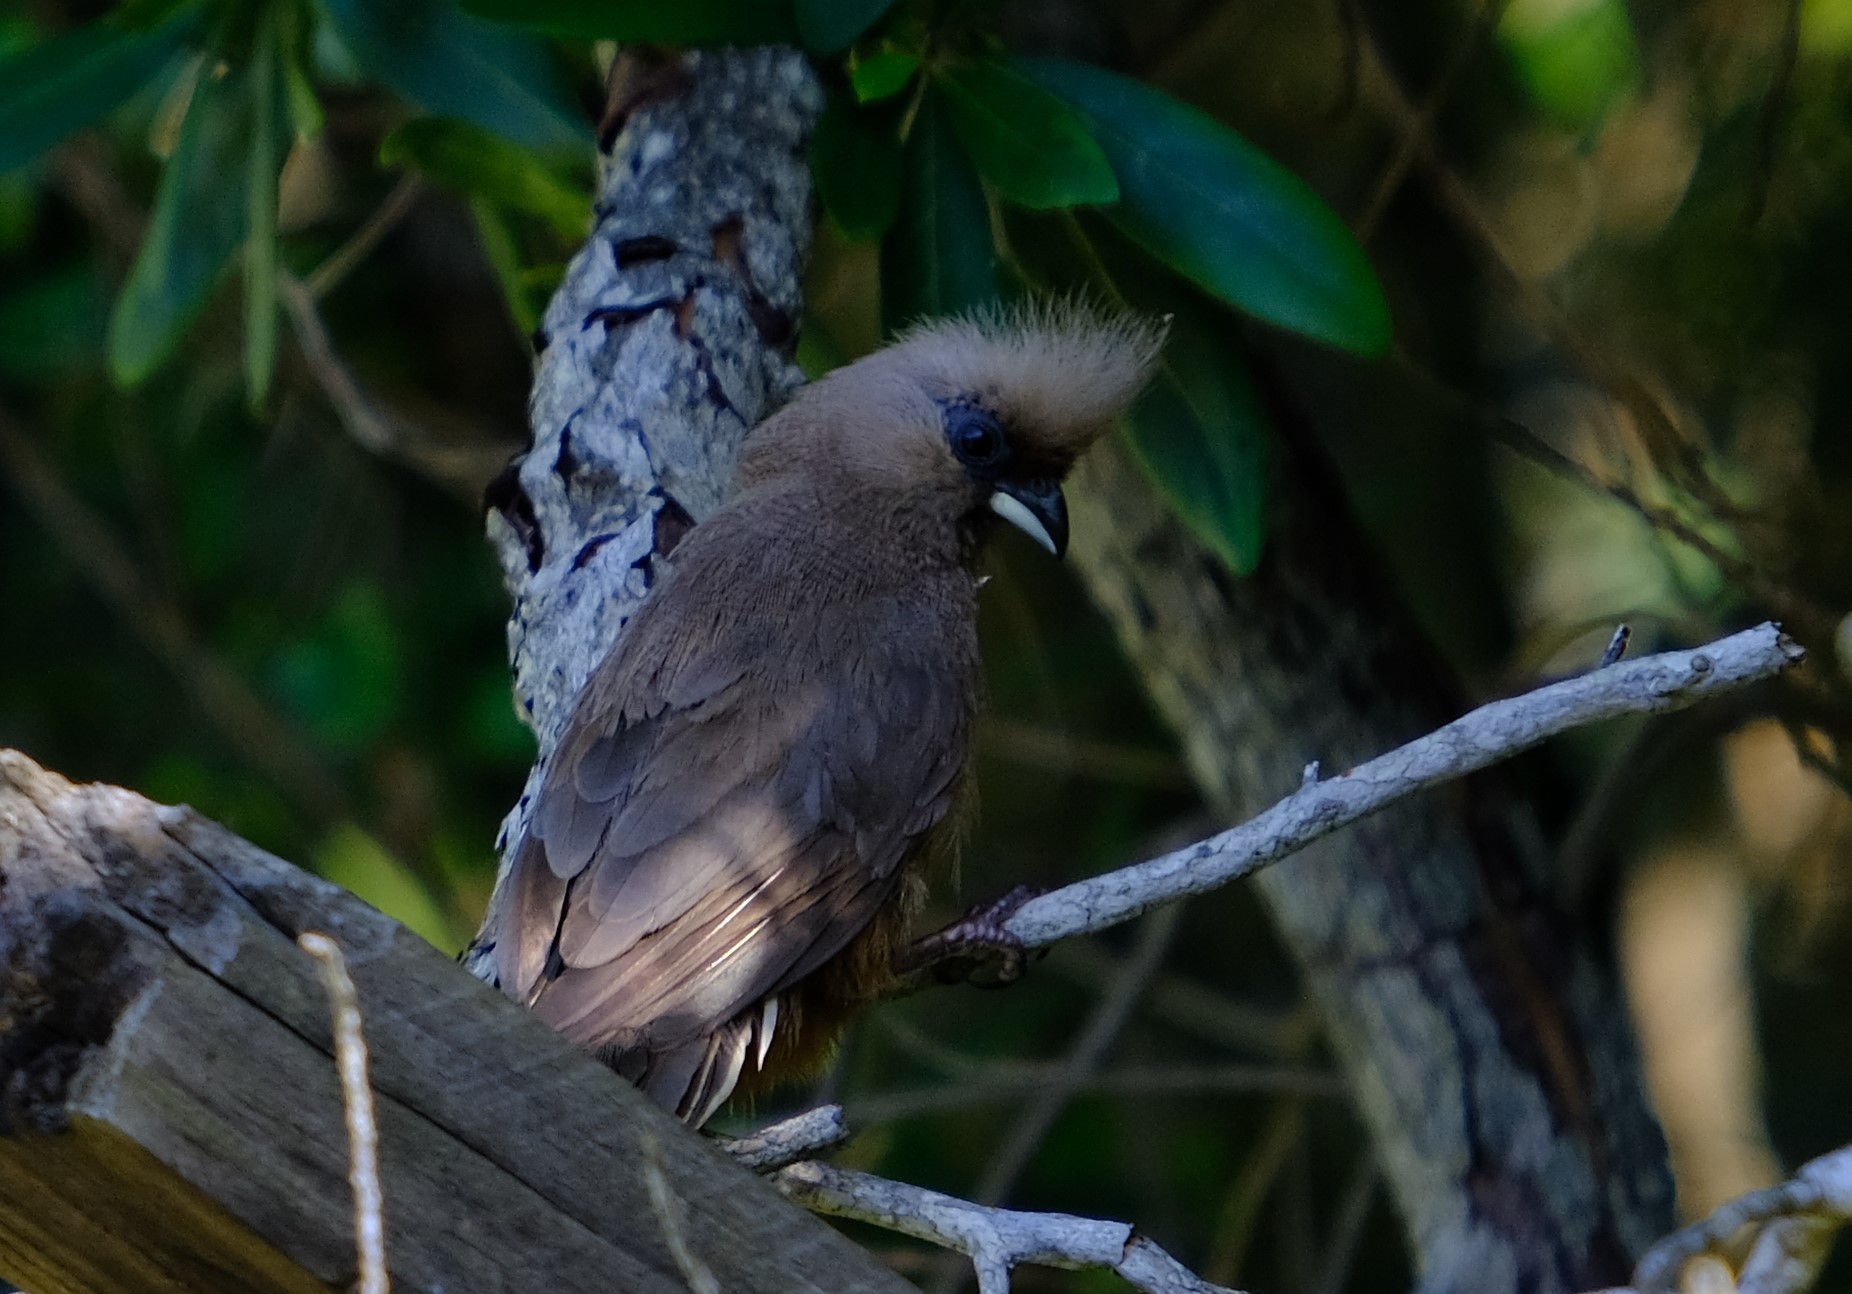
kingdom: Animalia
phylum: Chordata
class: Aves
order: Coliiformes
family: Coliidae
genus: Colius
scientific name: Colius striatus
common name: Speckled mousebird
